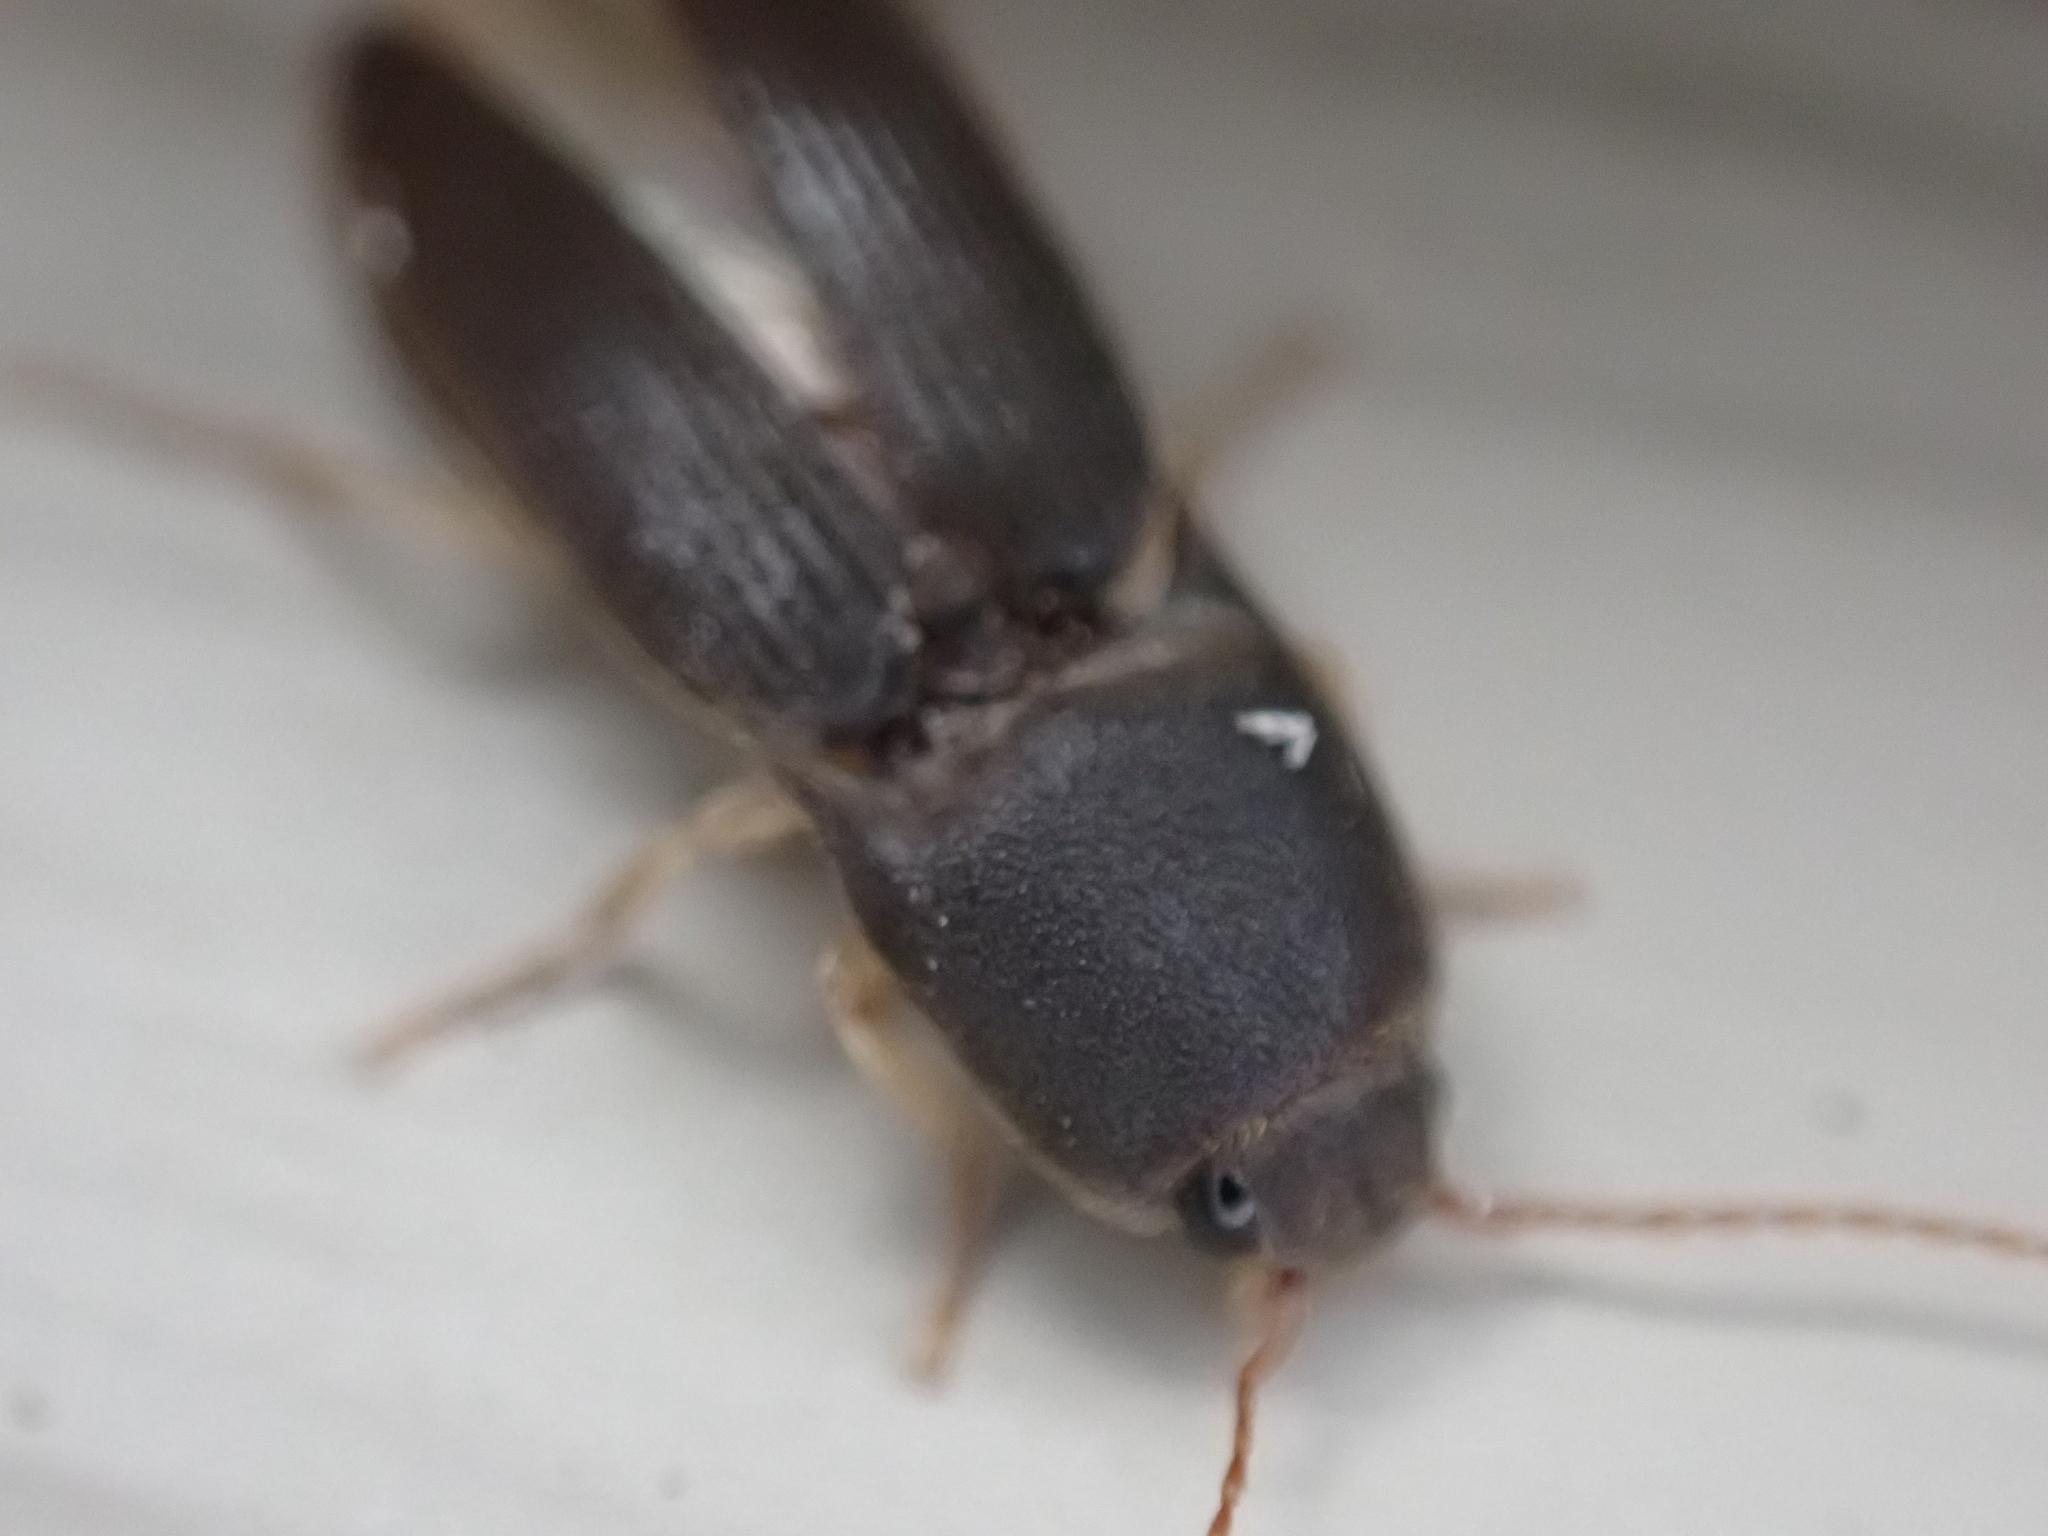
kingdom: Animalia
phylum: Arthropoda
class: Insecta
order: Coleoptera
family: Elateridae
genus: Heteroderes
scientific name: Heteroderes amplicollis
